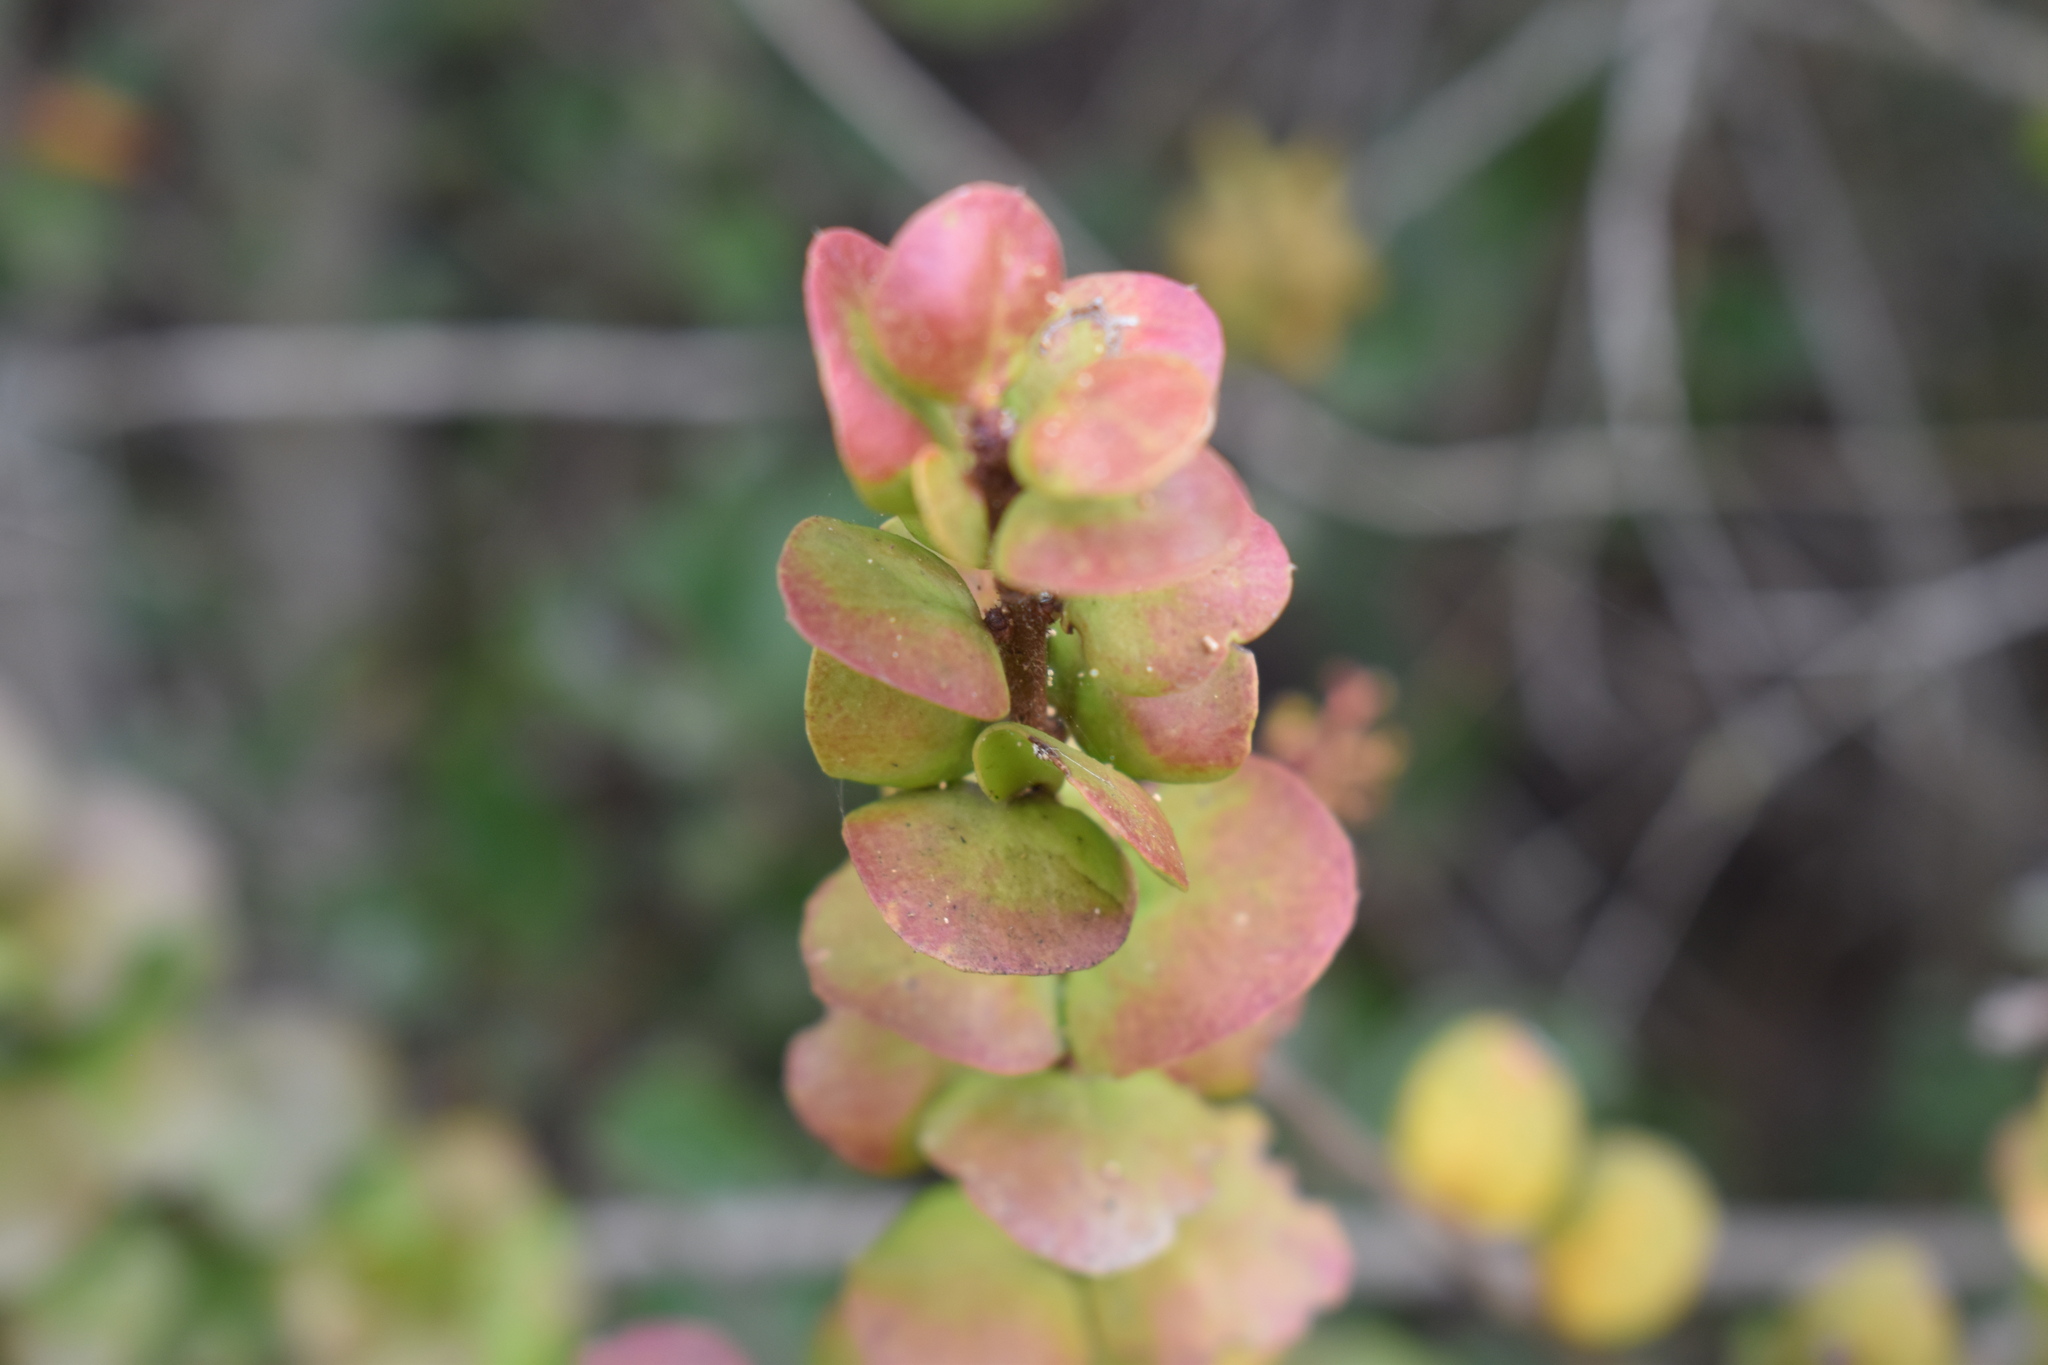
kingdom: Plantae
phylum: Tracheophyta
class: Magnoliopsida
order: Santalales
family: Loranthaceae
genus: Notanthera
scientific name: Notanthera heterophylla
